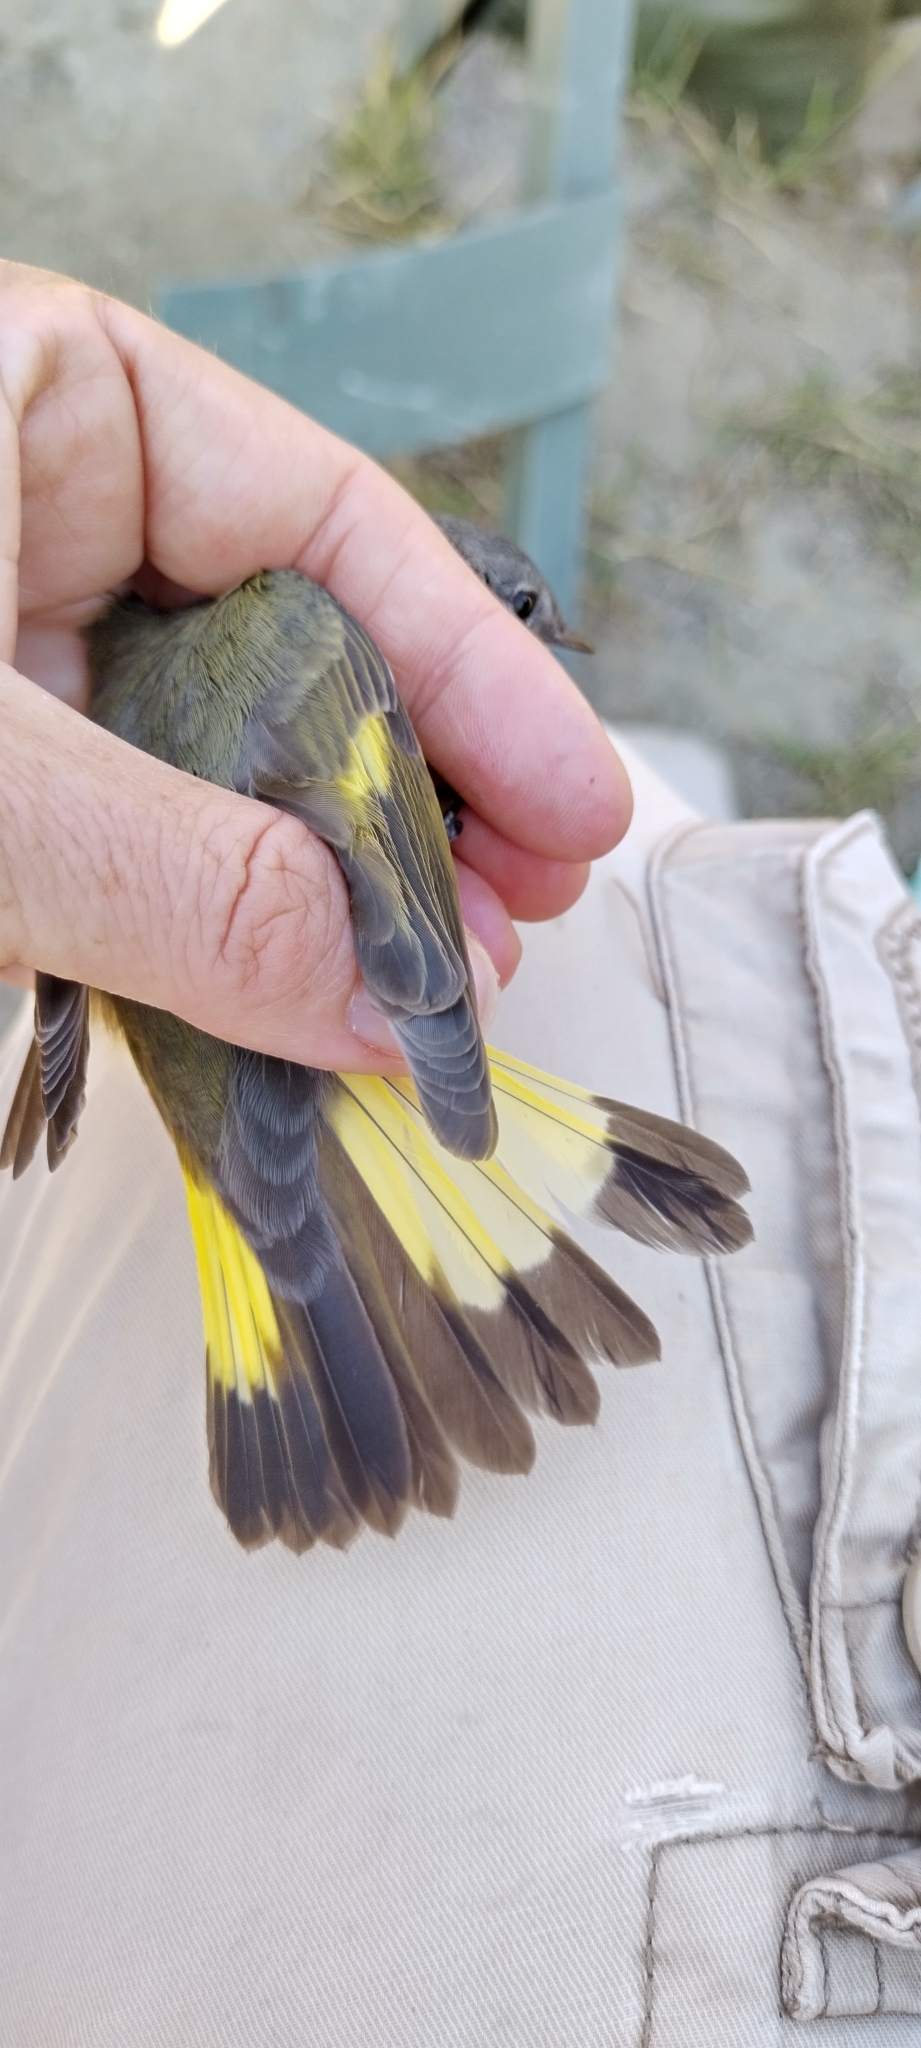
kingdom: Animalia
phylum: Chordata
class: Aves
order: Passeriformes
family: Parulidae
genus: Setophaga
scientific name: Setophaga ruticilla
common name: American redstart
